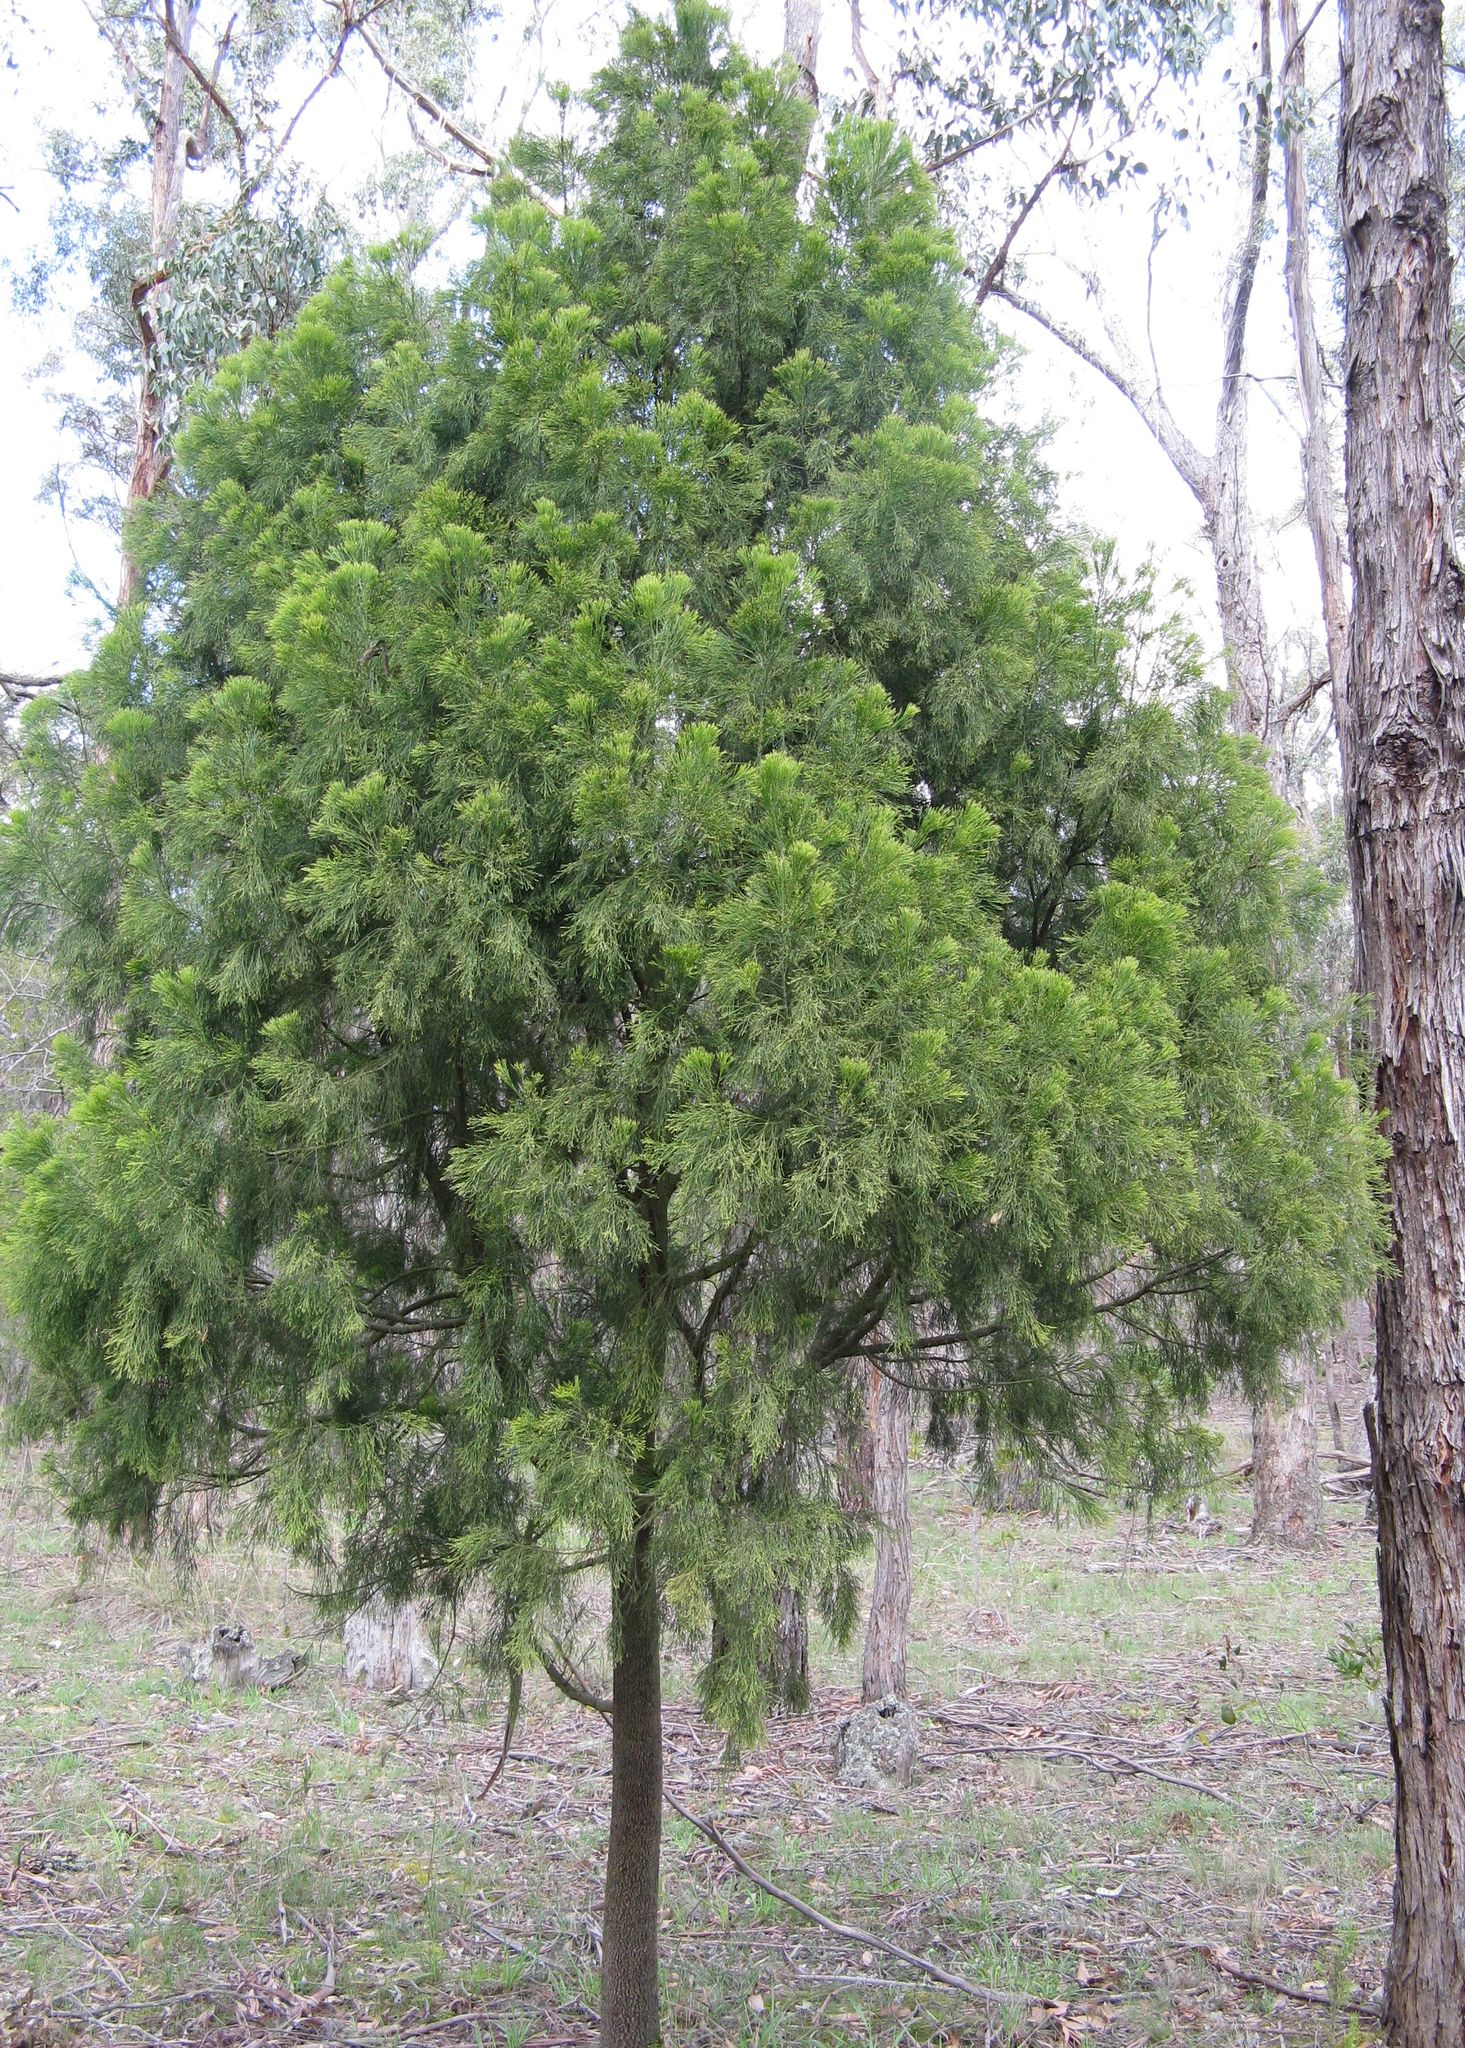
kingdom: Plantae
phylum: Tracheophyta
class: Magnoliopsida
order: Santalales
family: Santalaceae
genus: Exocarpos
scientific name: Exocarpos cupressiformis
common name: Cherry ballart
